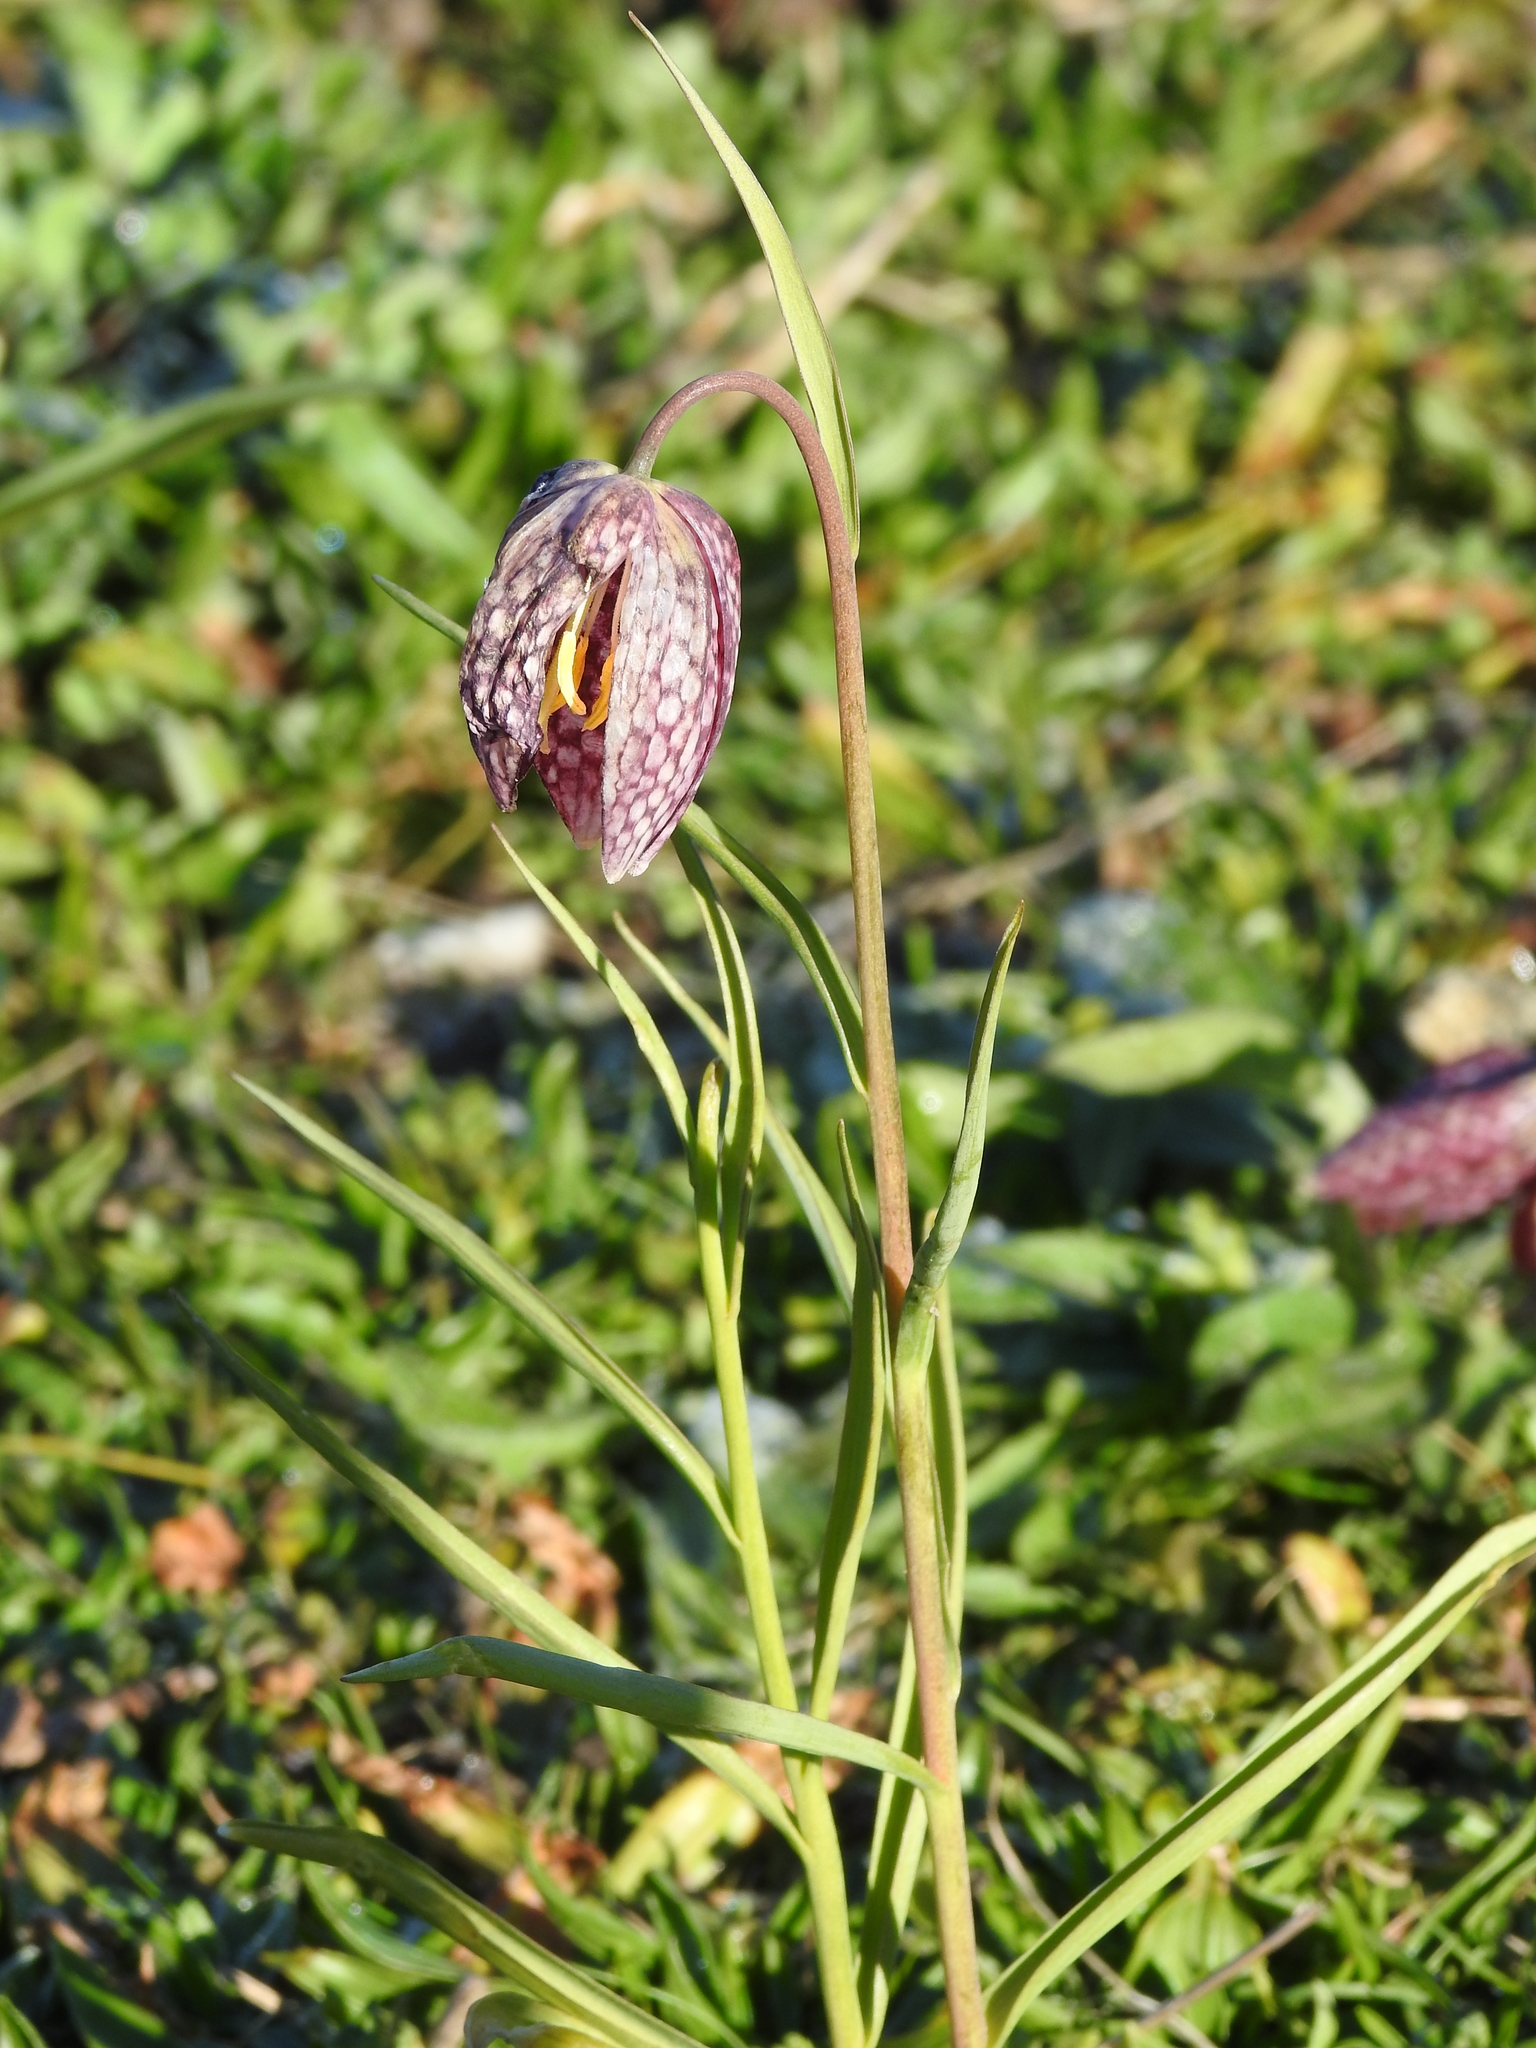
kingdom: Plantae
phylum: Tracheophyta
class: Liliopsida
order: Liliales
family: Liliaceae
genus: Fritillaria
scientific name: Fritillaria meleagris
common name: Fritillary
